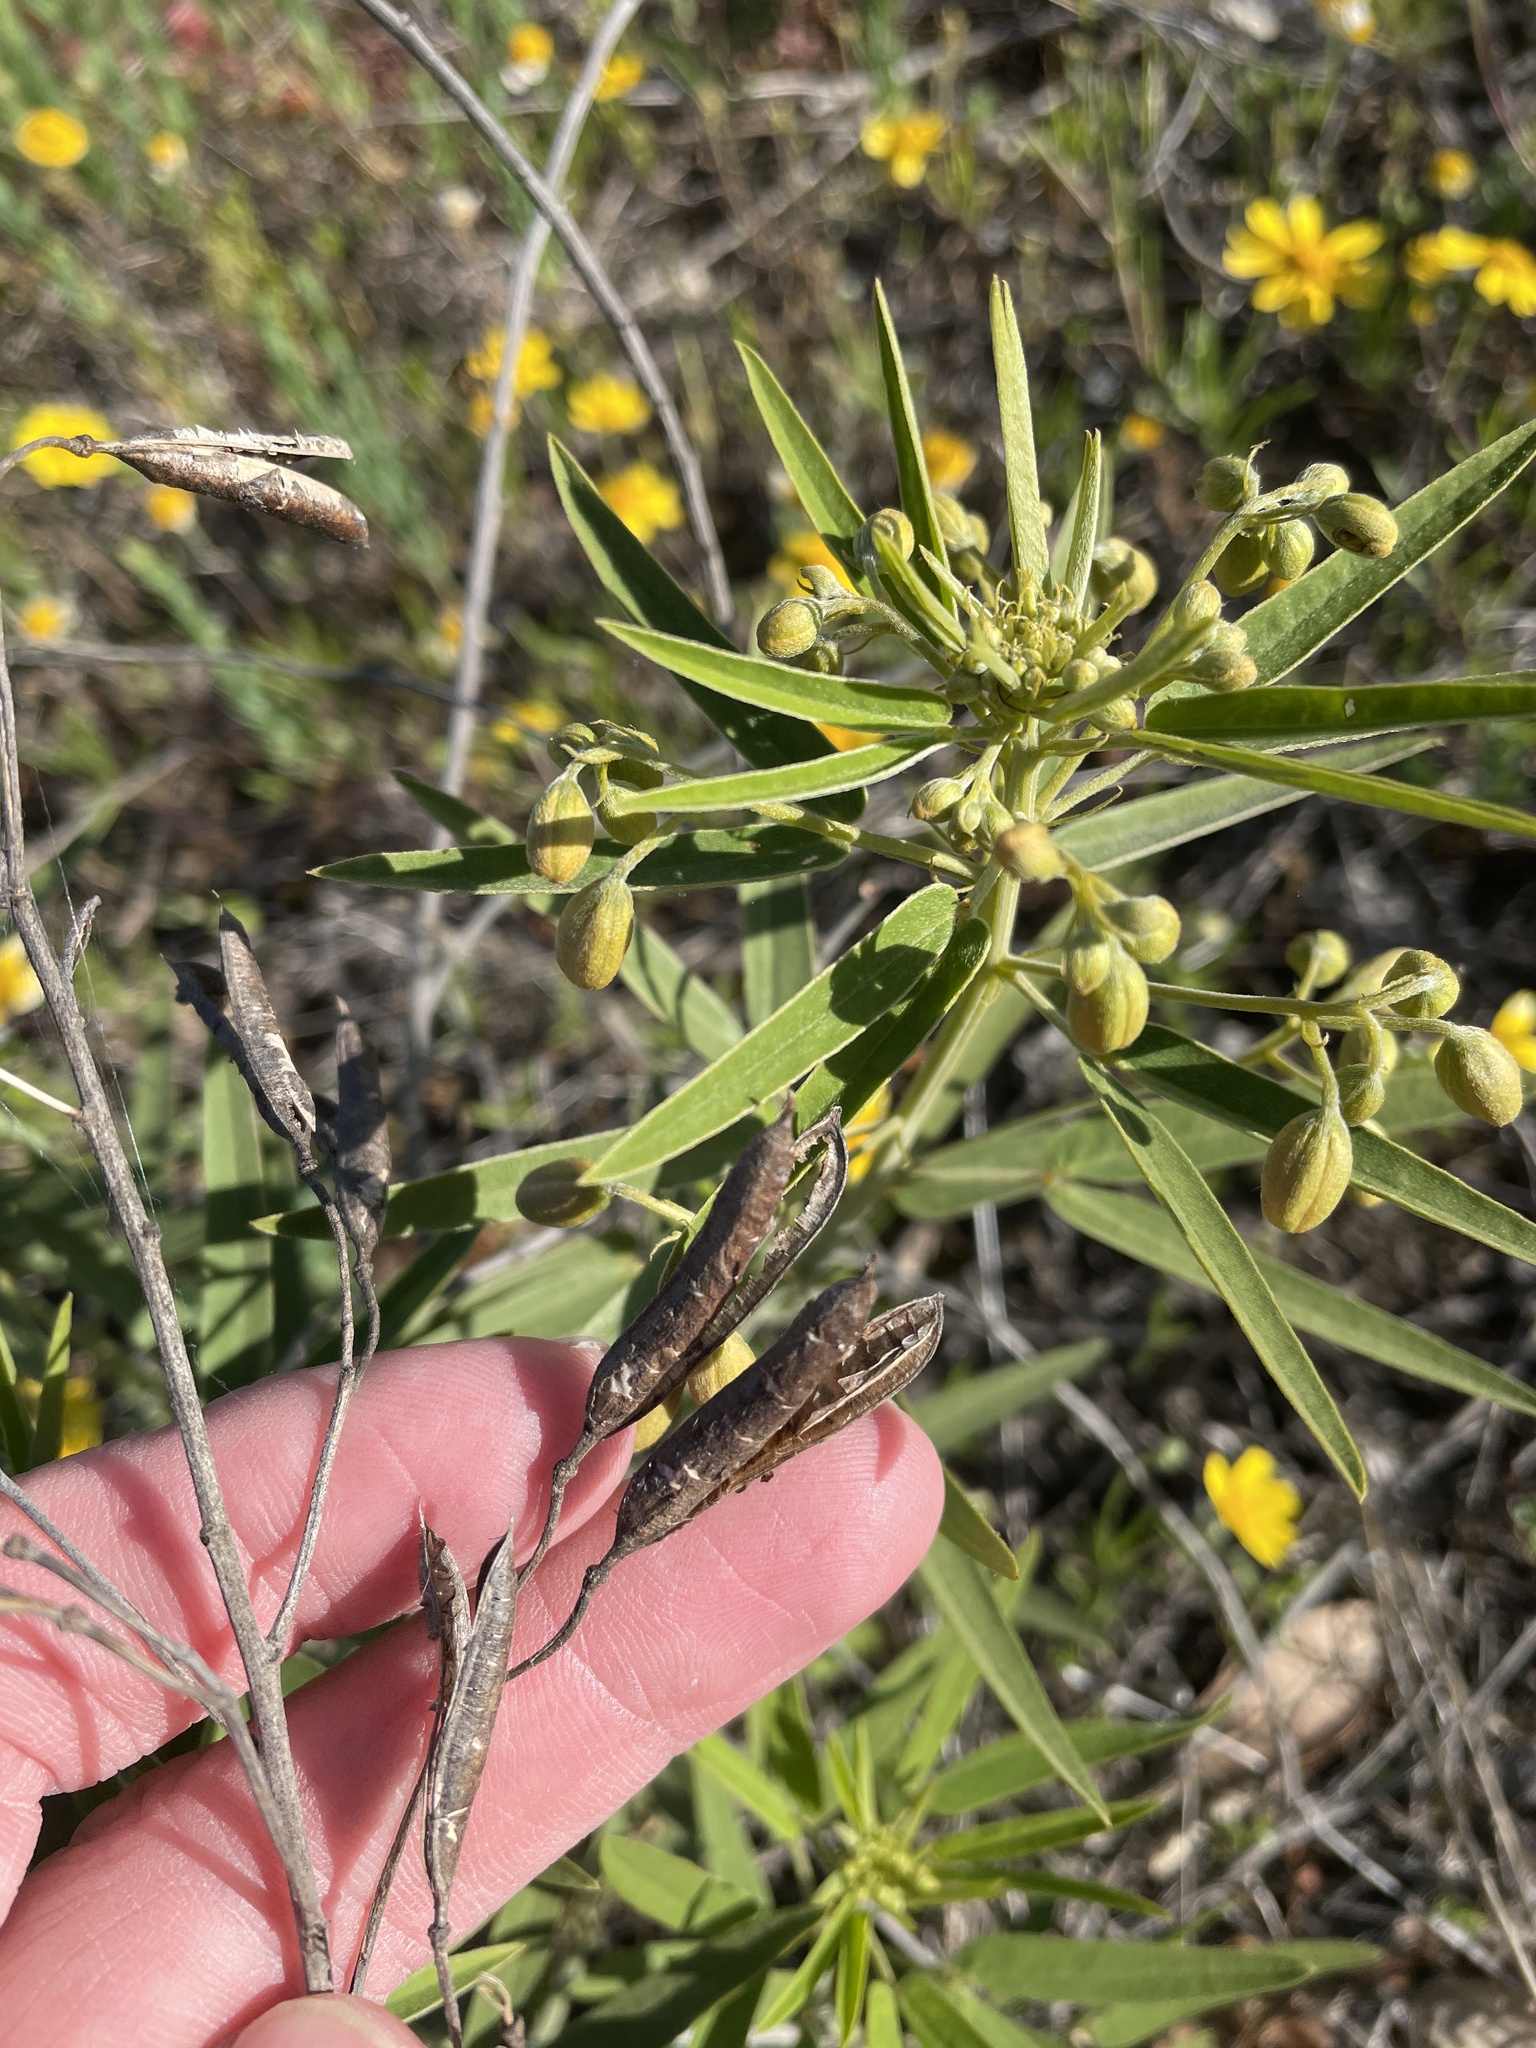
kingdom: Plantae
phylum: Tracheophyta
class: Magnoliopsida
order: Fabales
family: Fabaceae
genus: Senna
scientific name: Senna roemeriana
